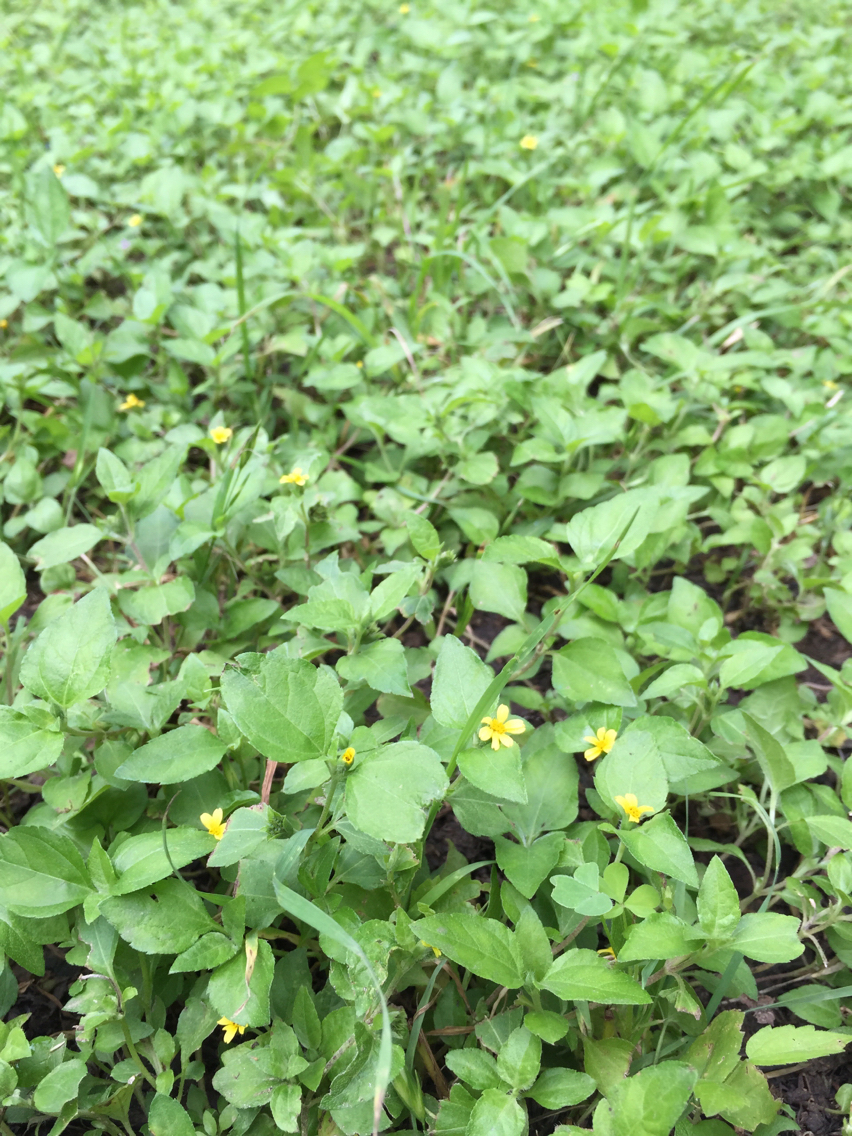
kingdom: Plantae
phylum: Tracheophyta
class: Magnoliopsida
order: Asterales
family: Asteraceae
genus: Calyptocarpus
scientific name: Calyptocarpus vialis
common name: Straggler daisy
